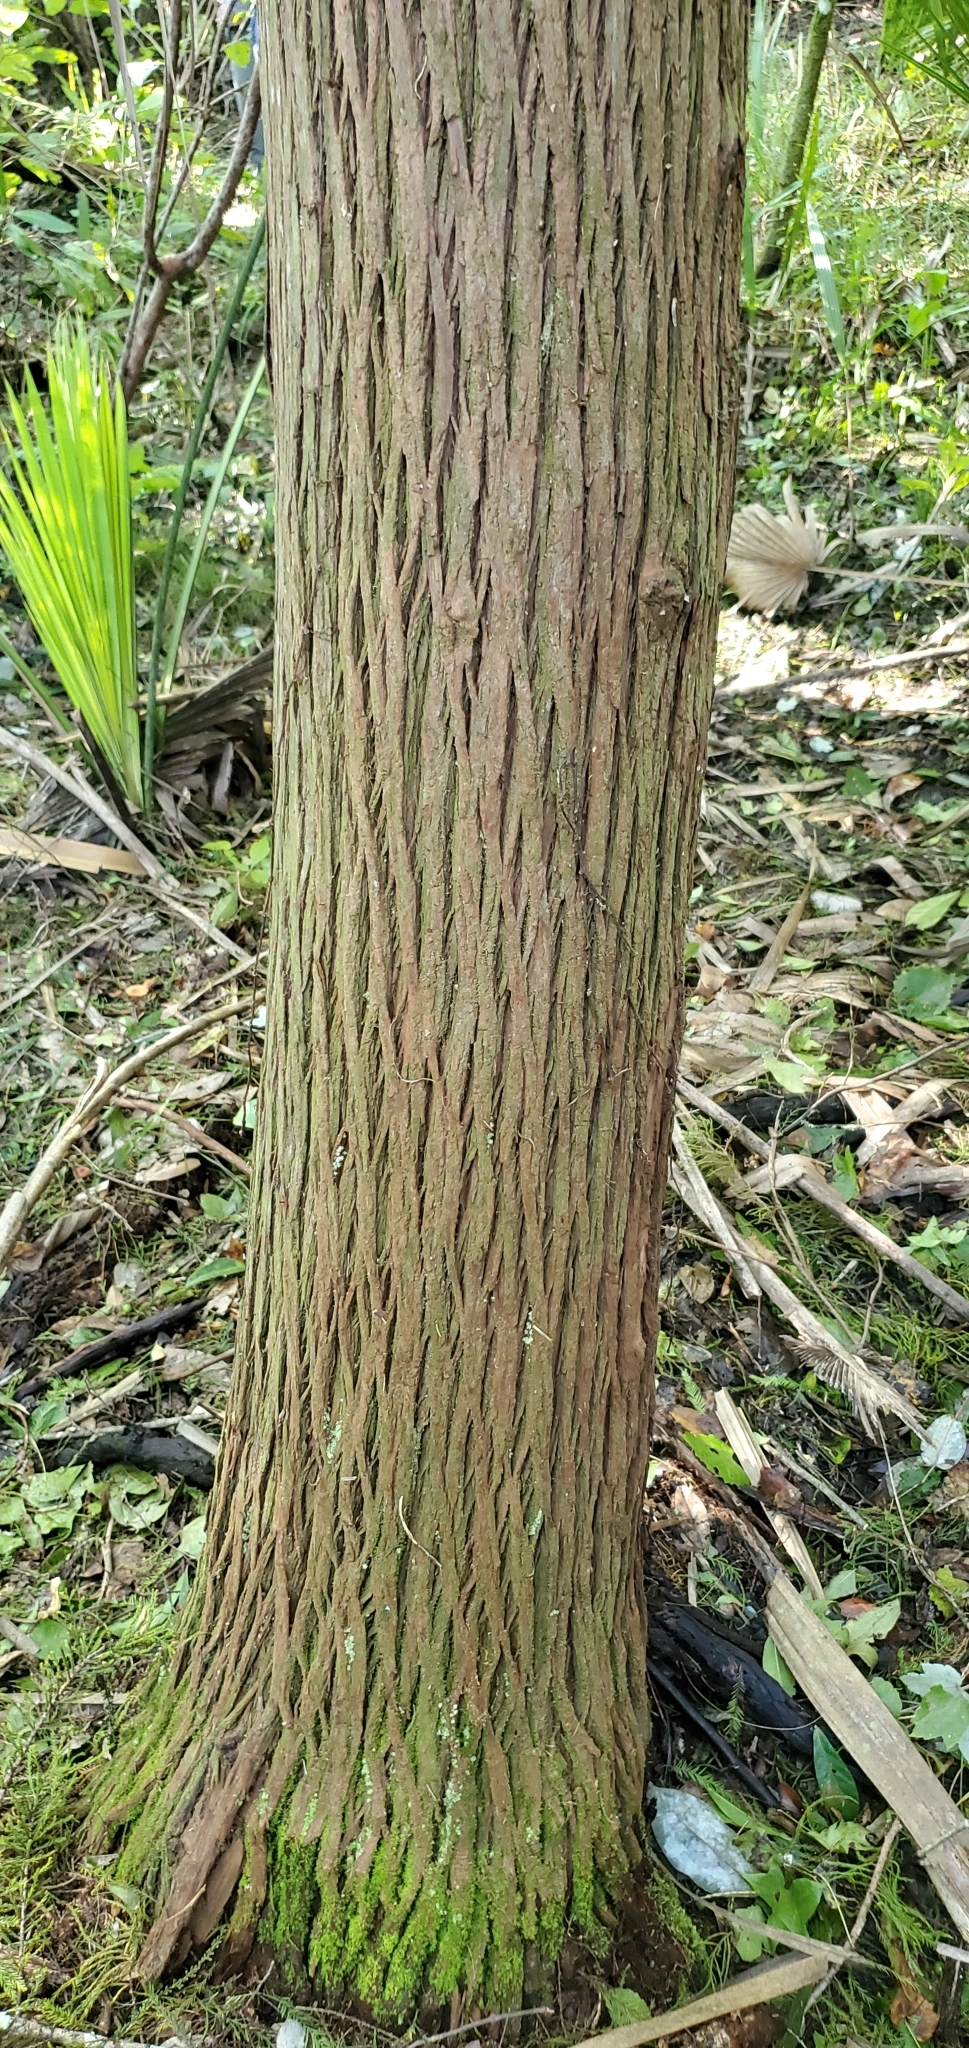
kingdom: Plantae
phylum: Tracheophyta
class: Pinopsida
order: Pinales
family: Cupressaceae
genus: Chamaecyparis
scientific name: Chamaecyparis thyoides
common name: Atlantic white cedar
